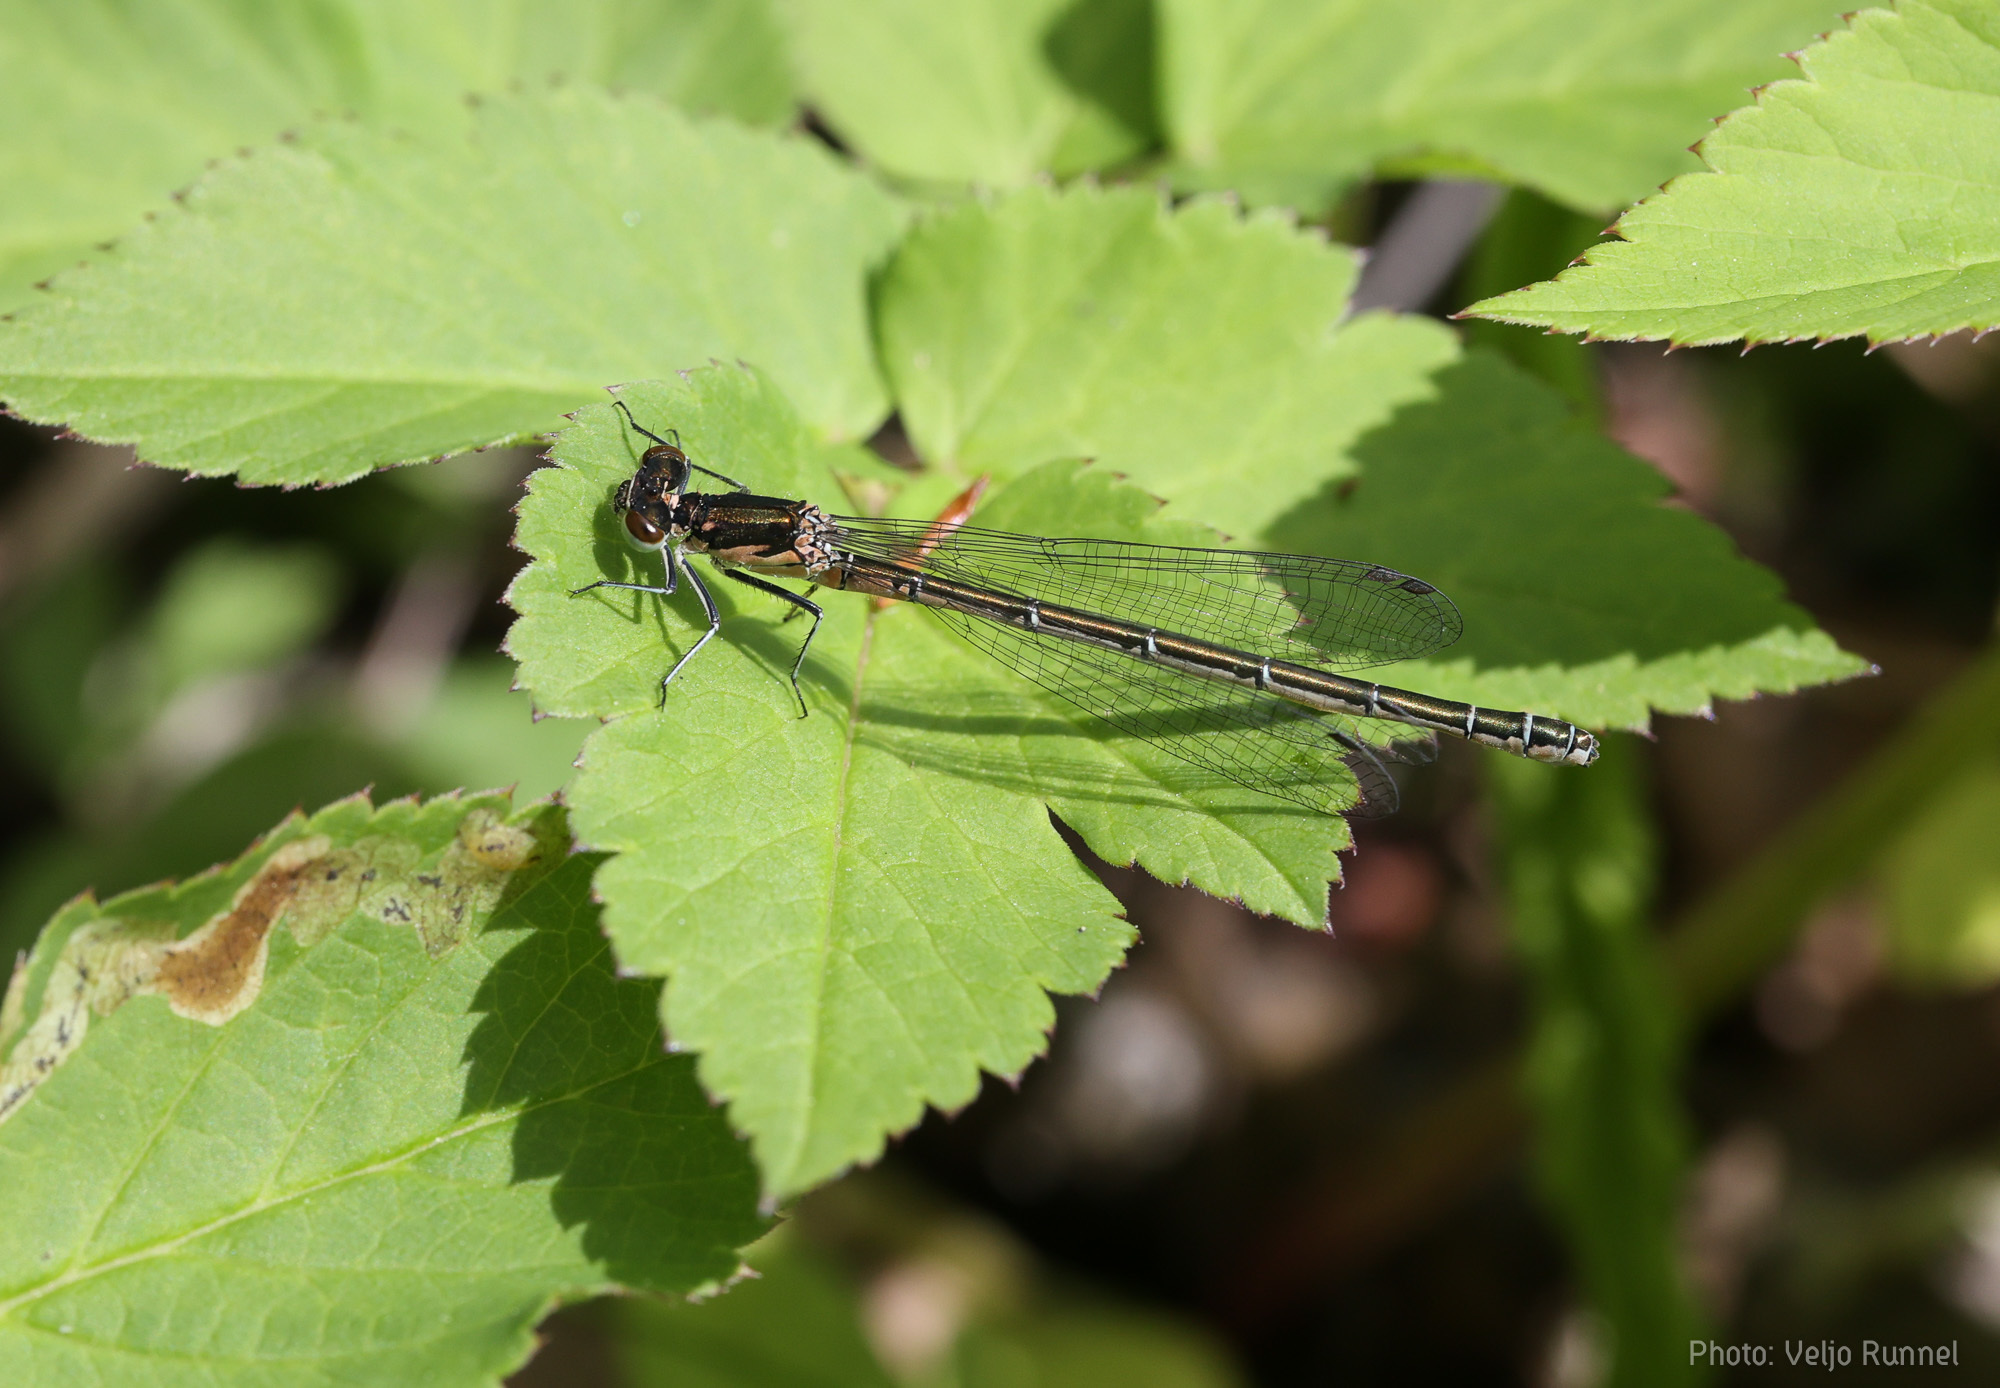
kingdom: Animalia
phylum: Arthropoda
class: Insecta
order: Odonata
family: Coenagrionidae
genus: Erythromma
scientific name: Erythromma najas
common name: Red-eyed damselfly
